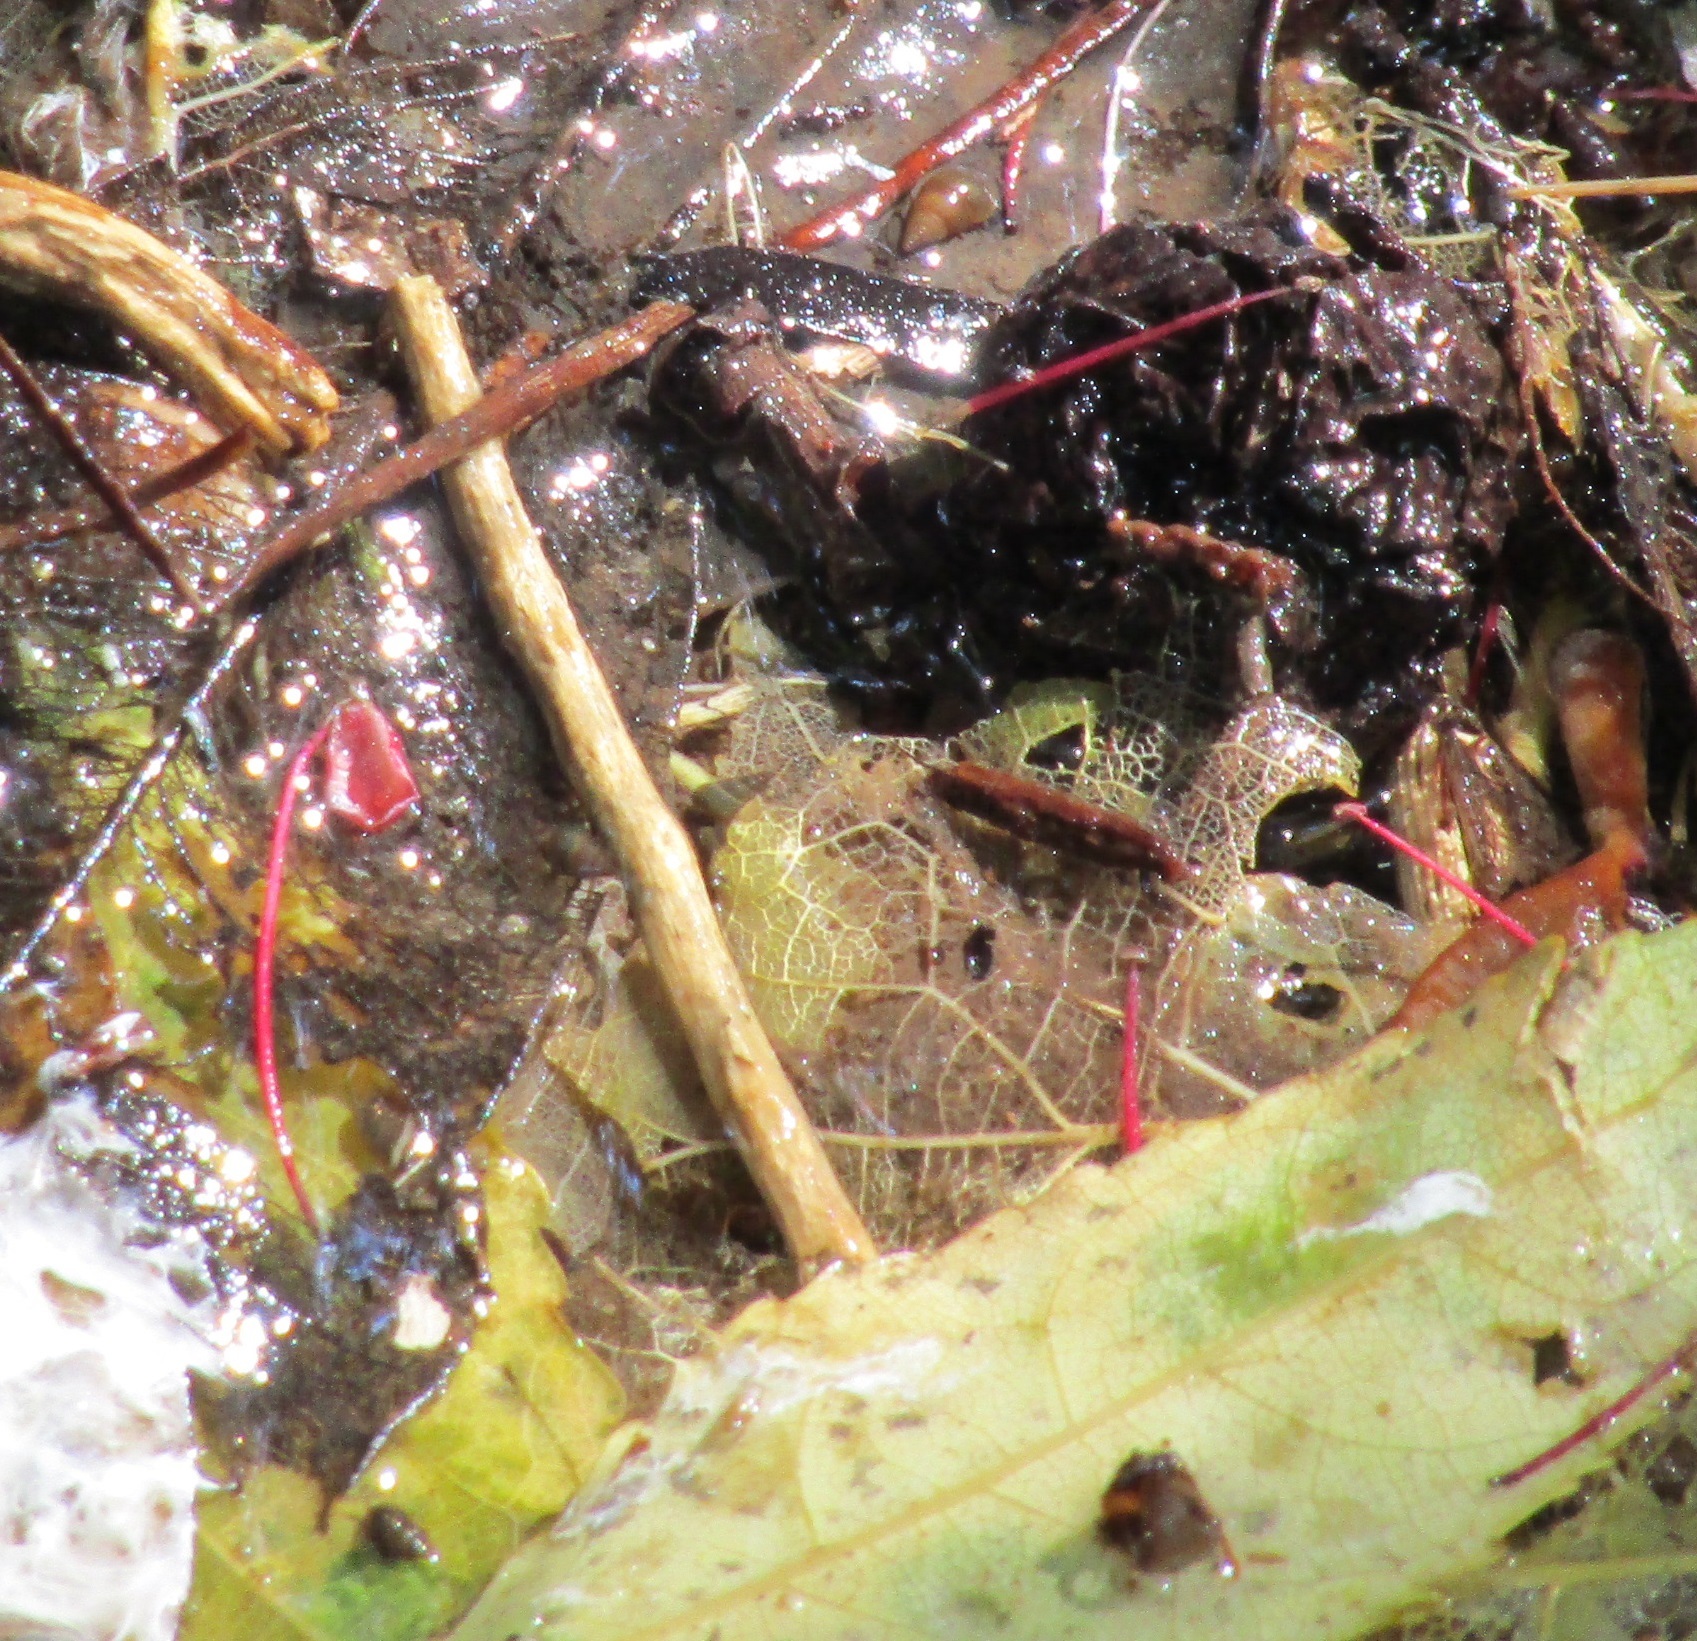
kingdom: Animalia
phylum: Mollusca
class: Gastropoda
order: Littorinimorpha
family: Tateidae
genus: Potamopyrgus
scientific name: Potamopyrgus antipodarum
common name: Jenkins' spire snail
